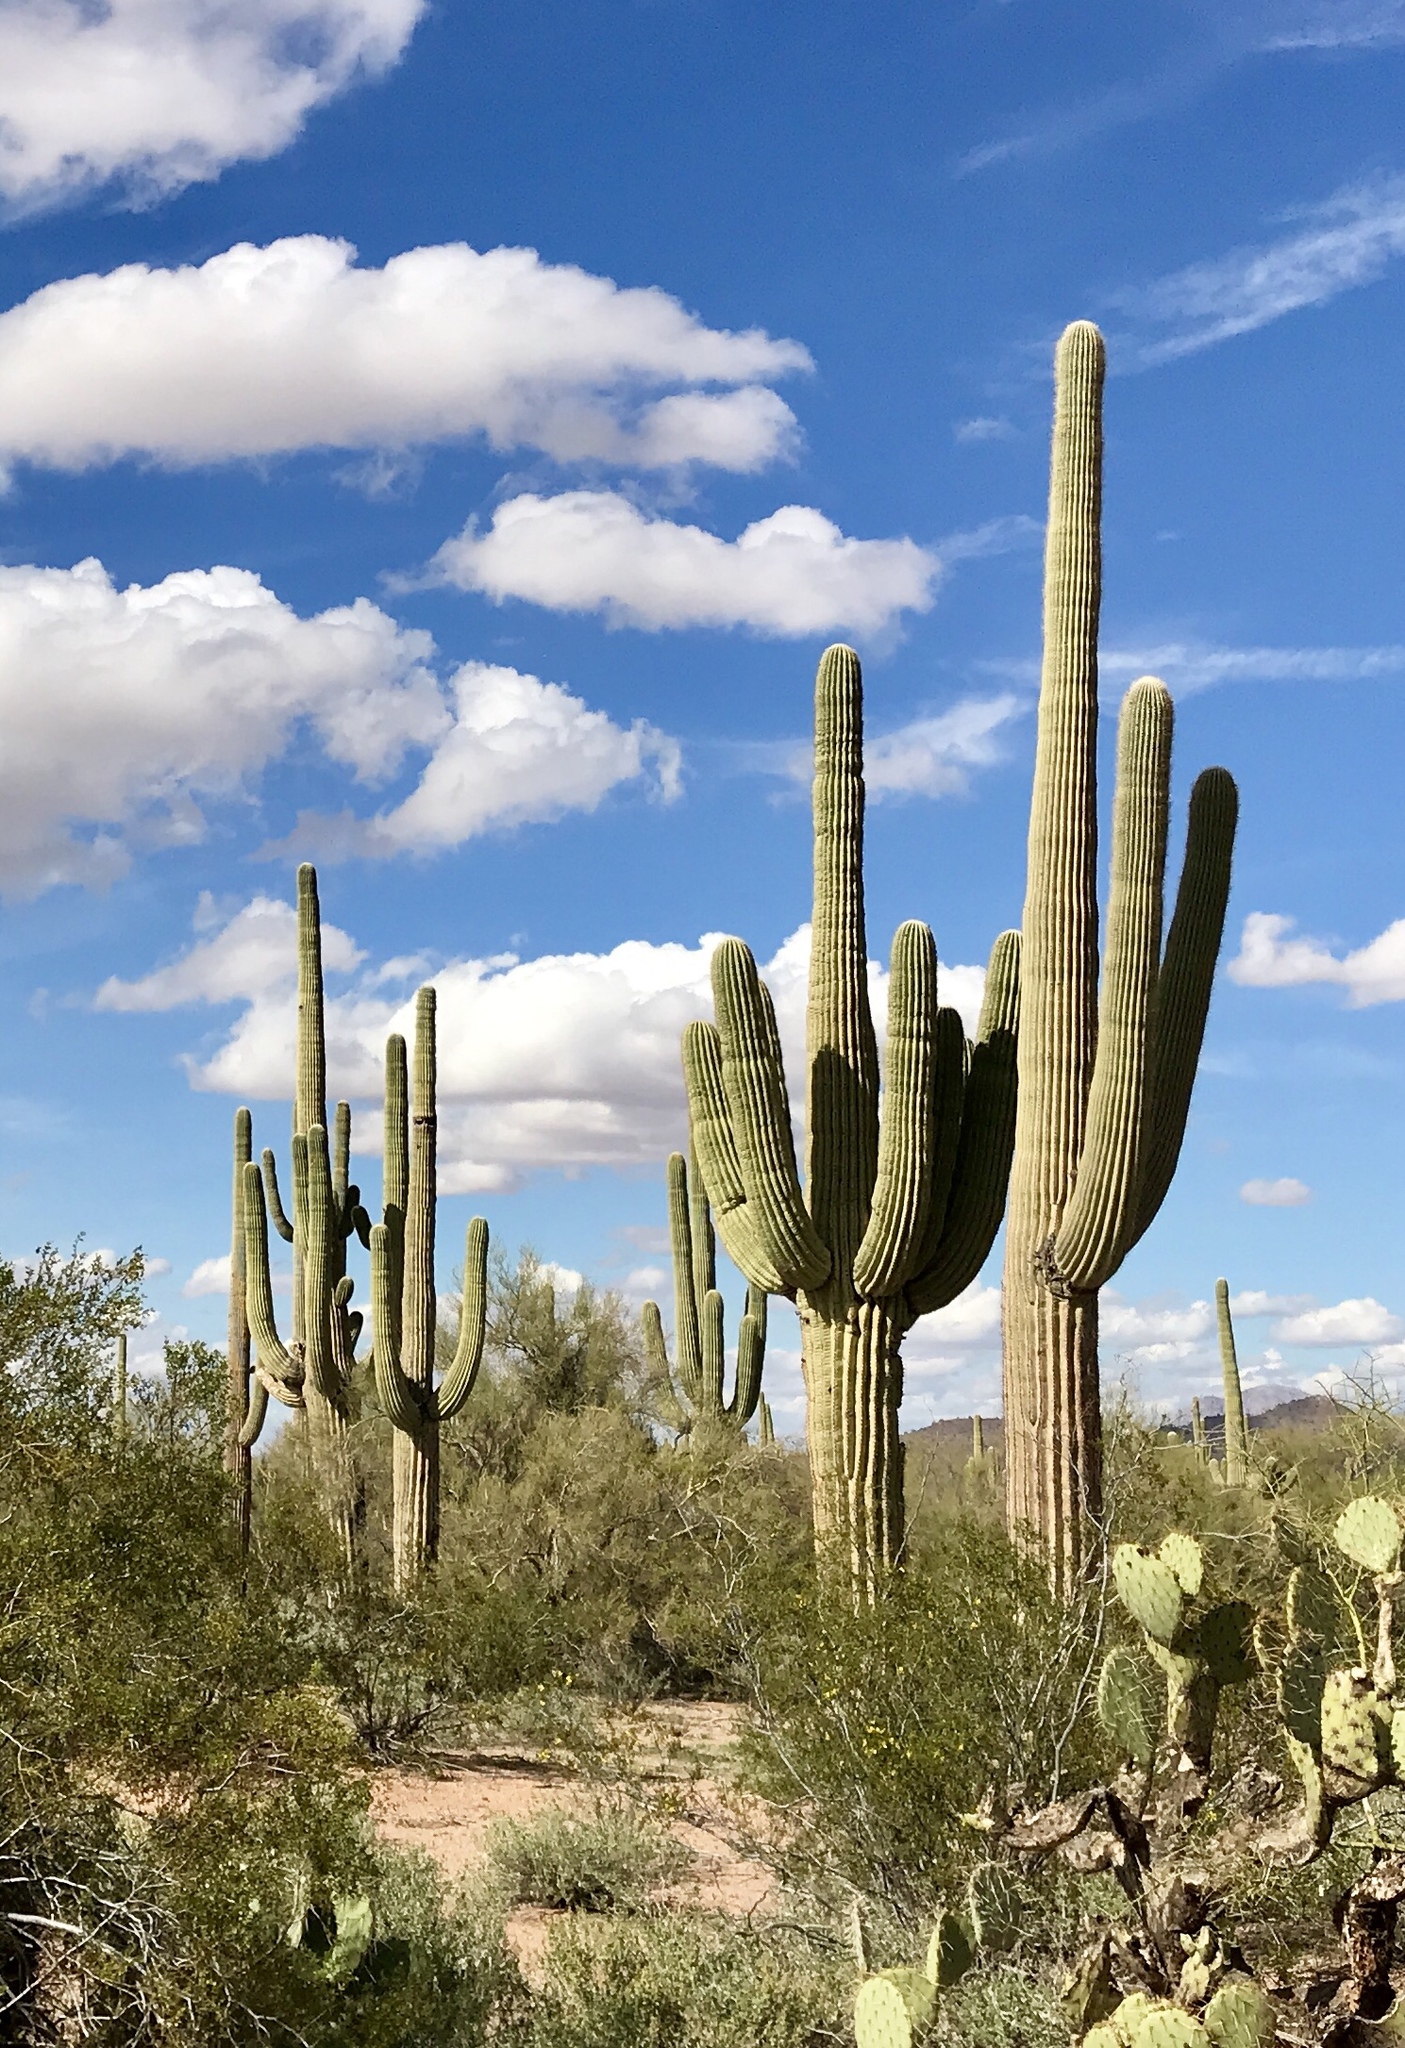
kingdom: Plantae
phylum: Tracheophyta
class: Magnoliopsida
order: Caryophyllales
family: Cactaceae
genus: Carnegiea
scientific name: Carnegiea gigantea
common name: Saguaro
